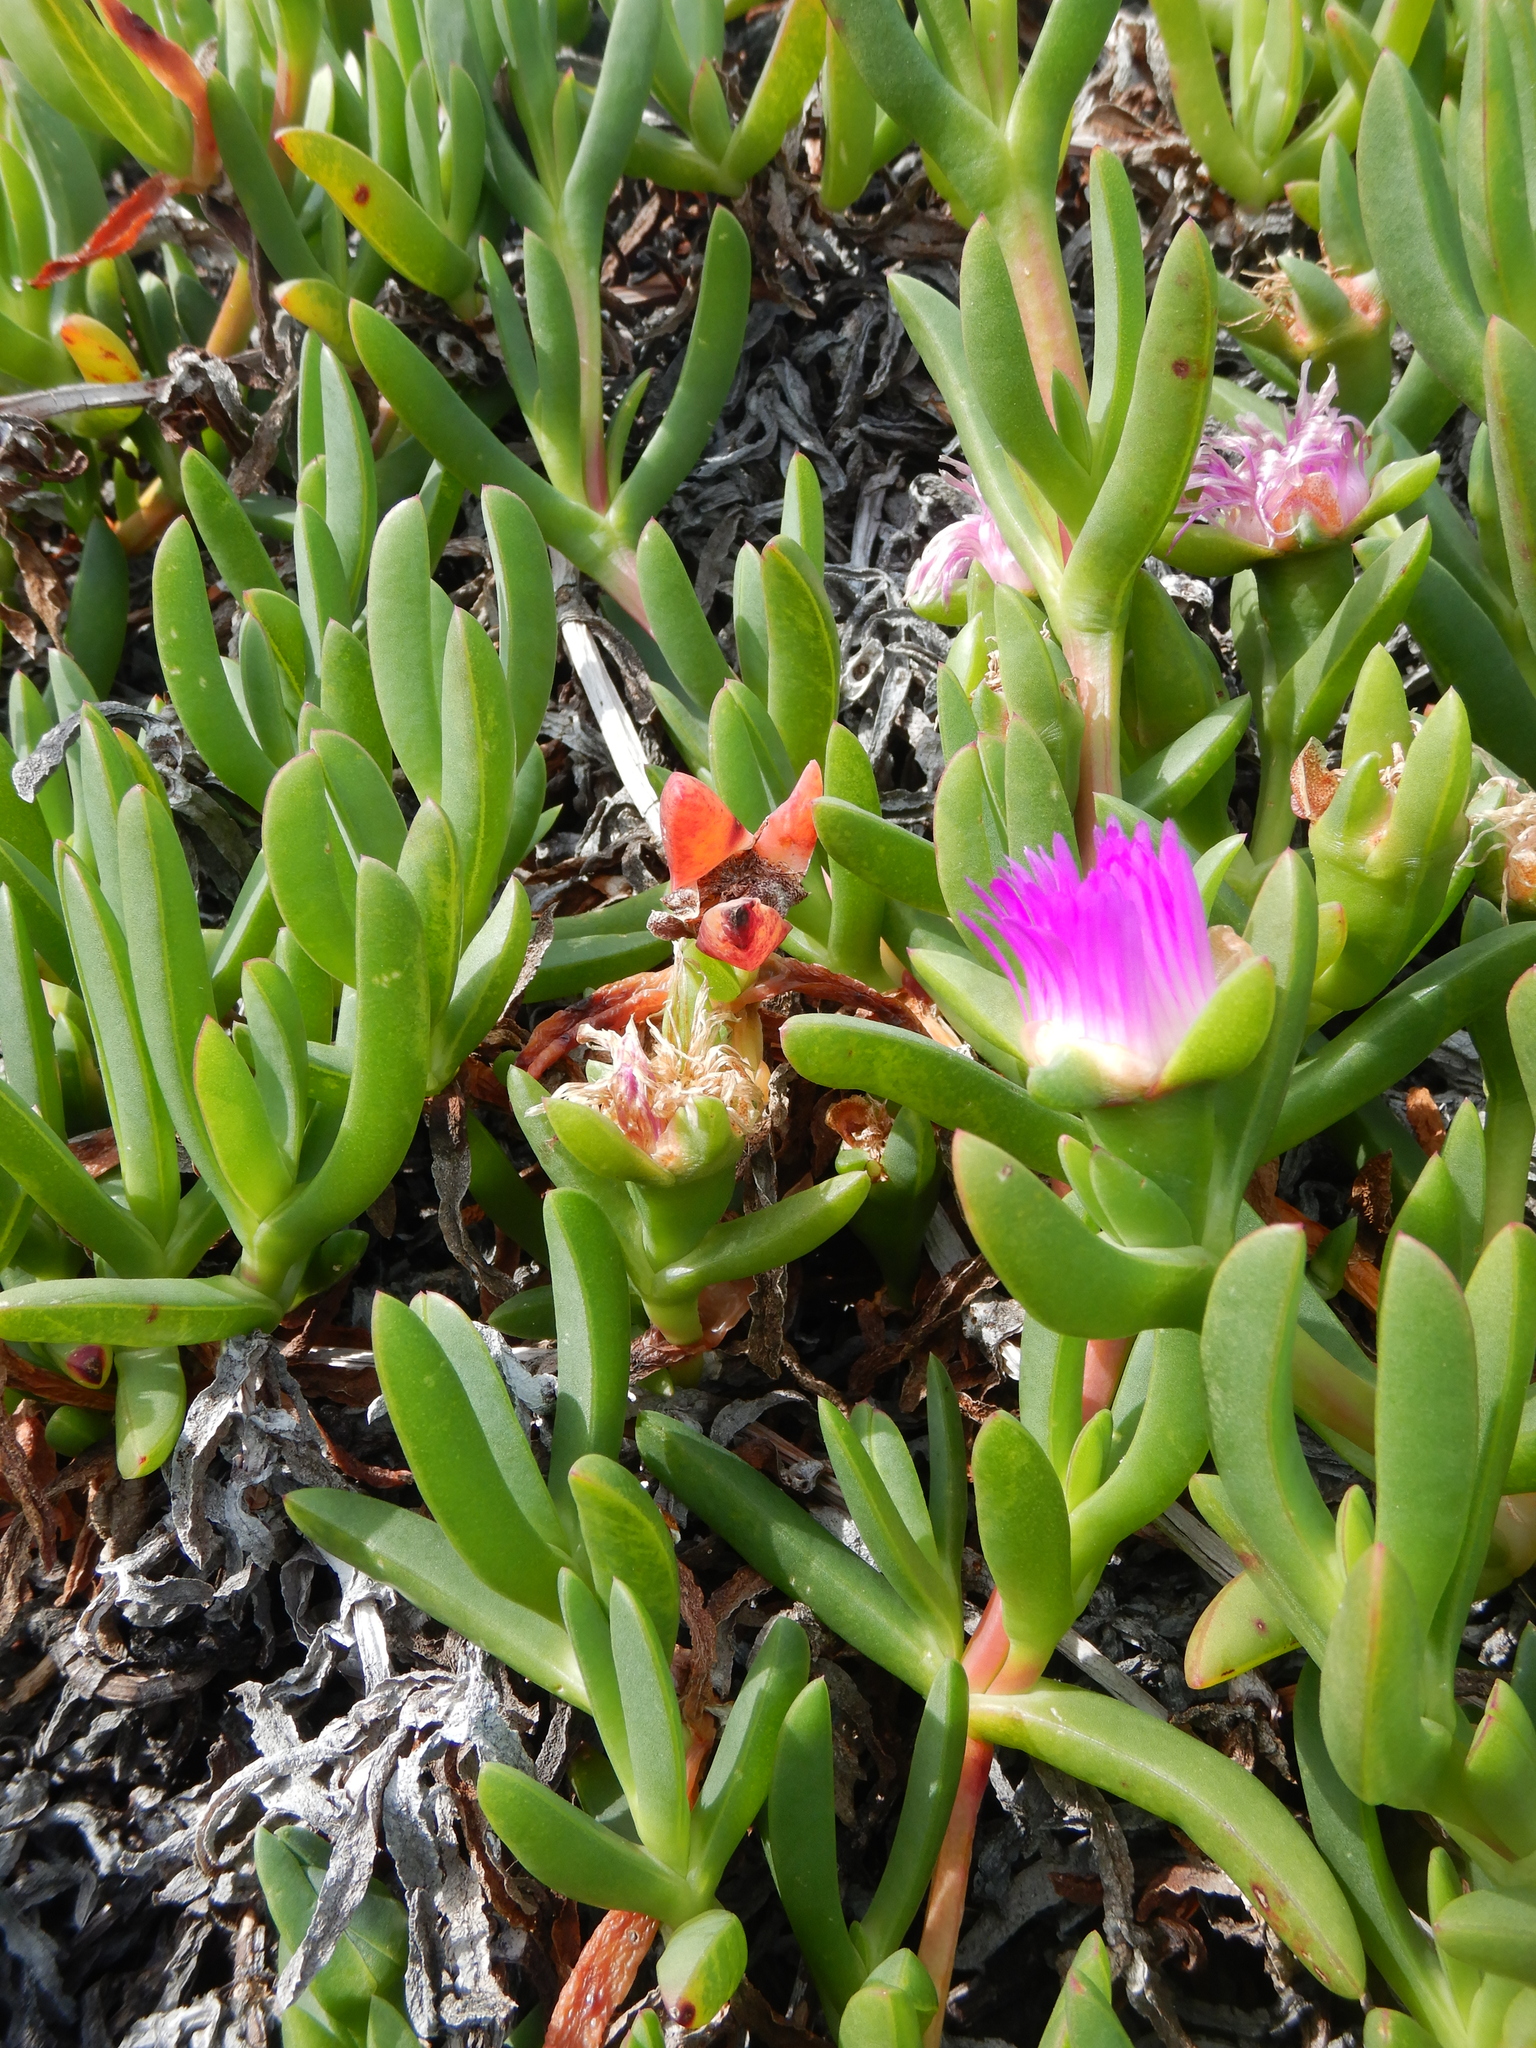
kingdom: Plantae
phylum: Tracheophyta
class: Magnoliopsida
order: Caryophyllales
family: Aizoaceae
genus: Carpobrotus
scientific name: Carpobrotus rossii
